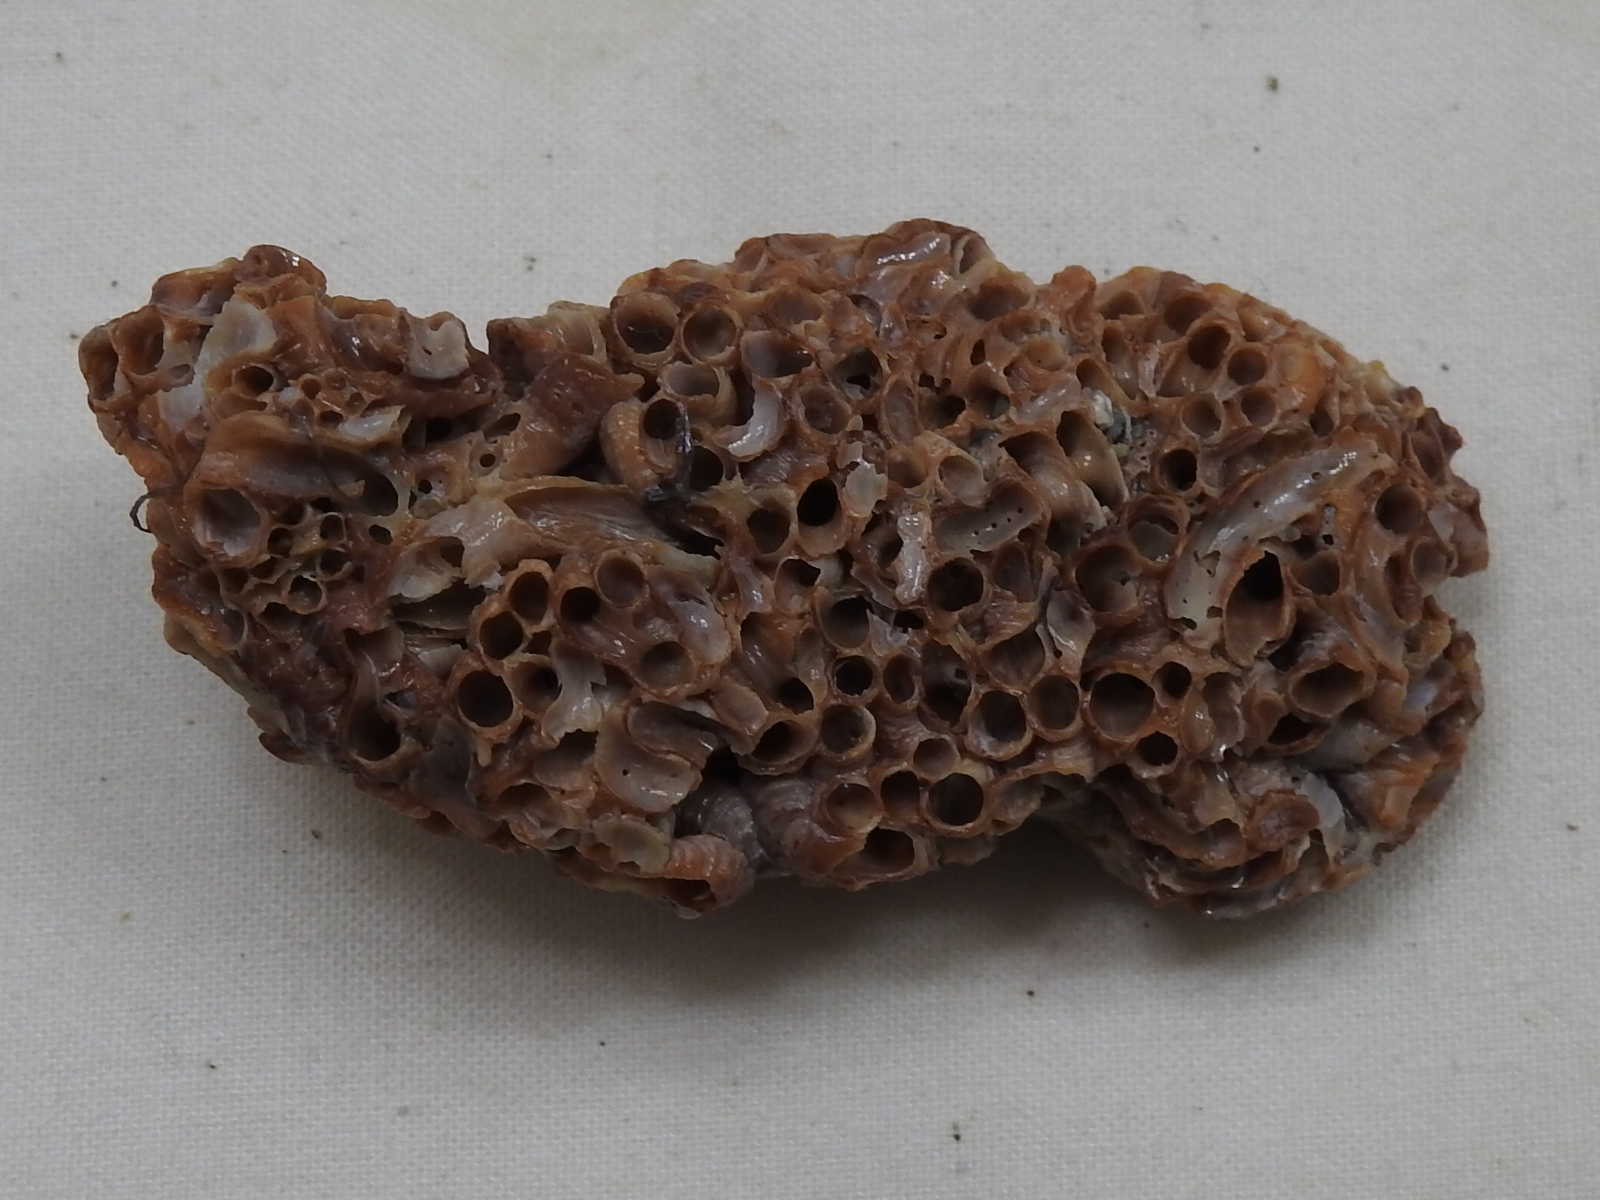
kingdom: Animalia
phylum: Mollusca
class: Gastropoda
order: Littorinimorpha
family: Vermetidae
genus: Petaloconchus
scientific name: Petaloconchus varians
